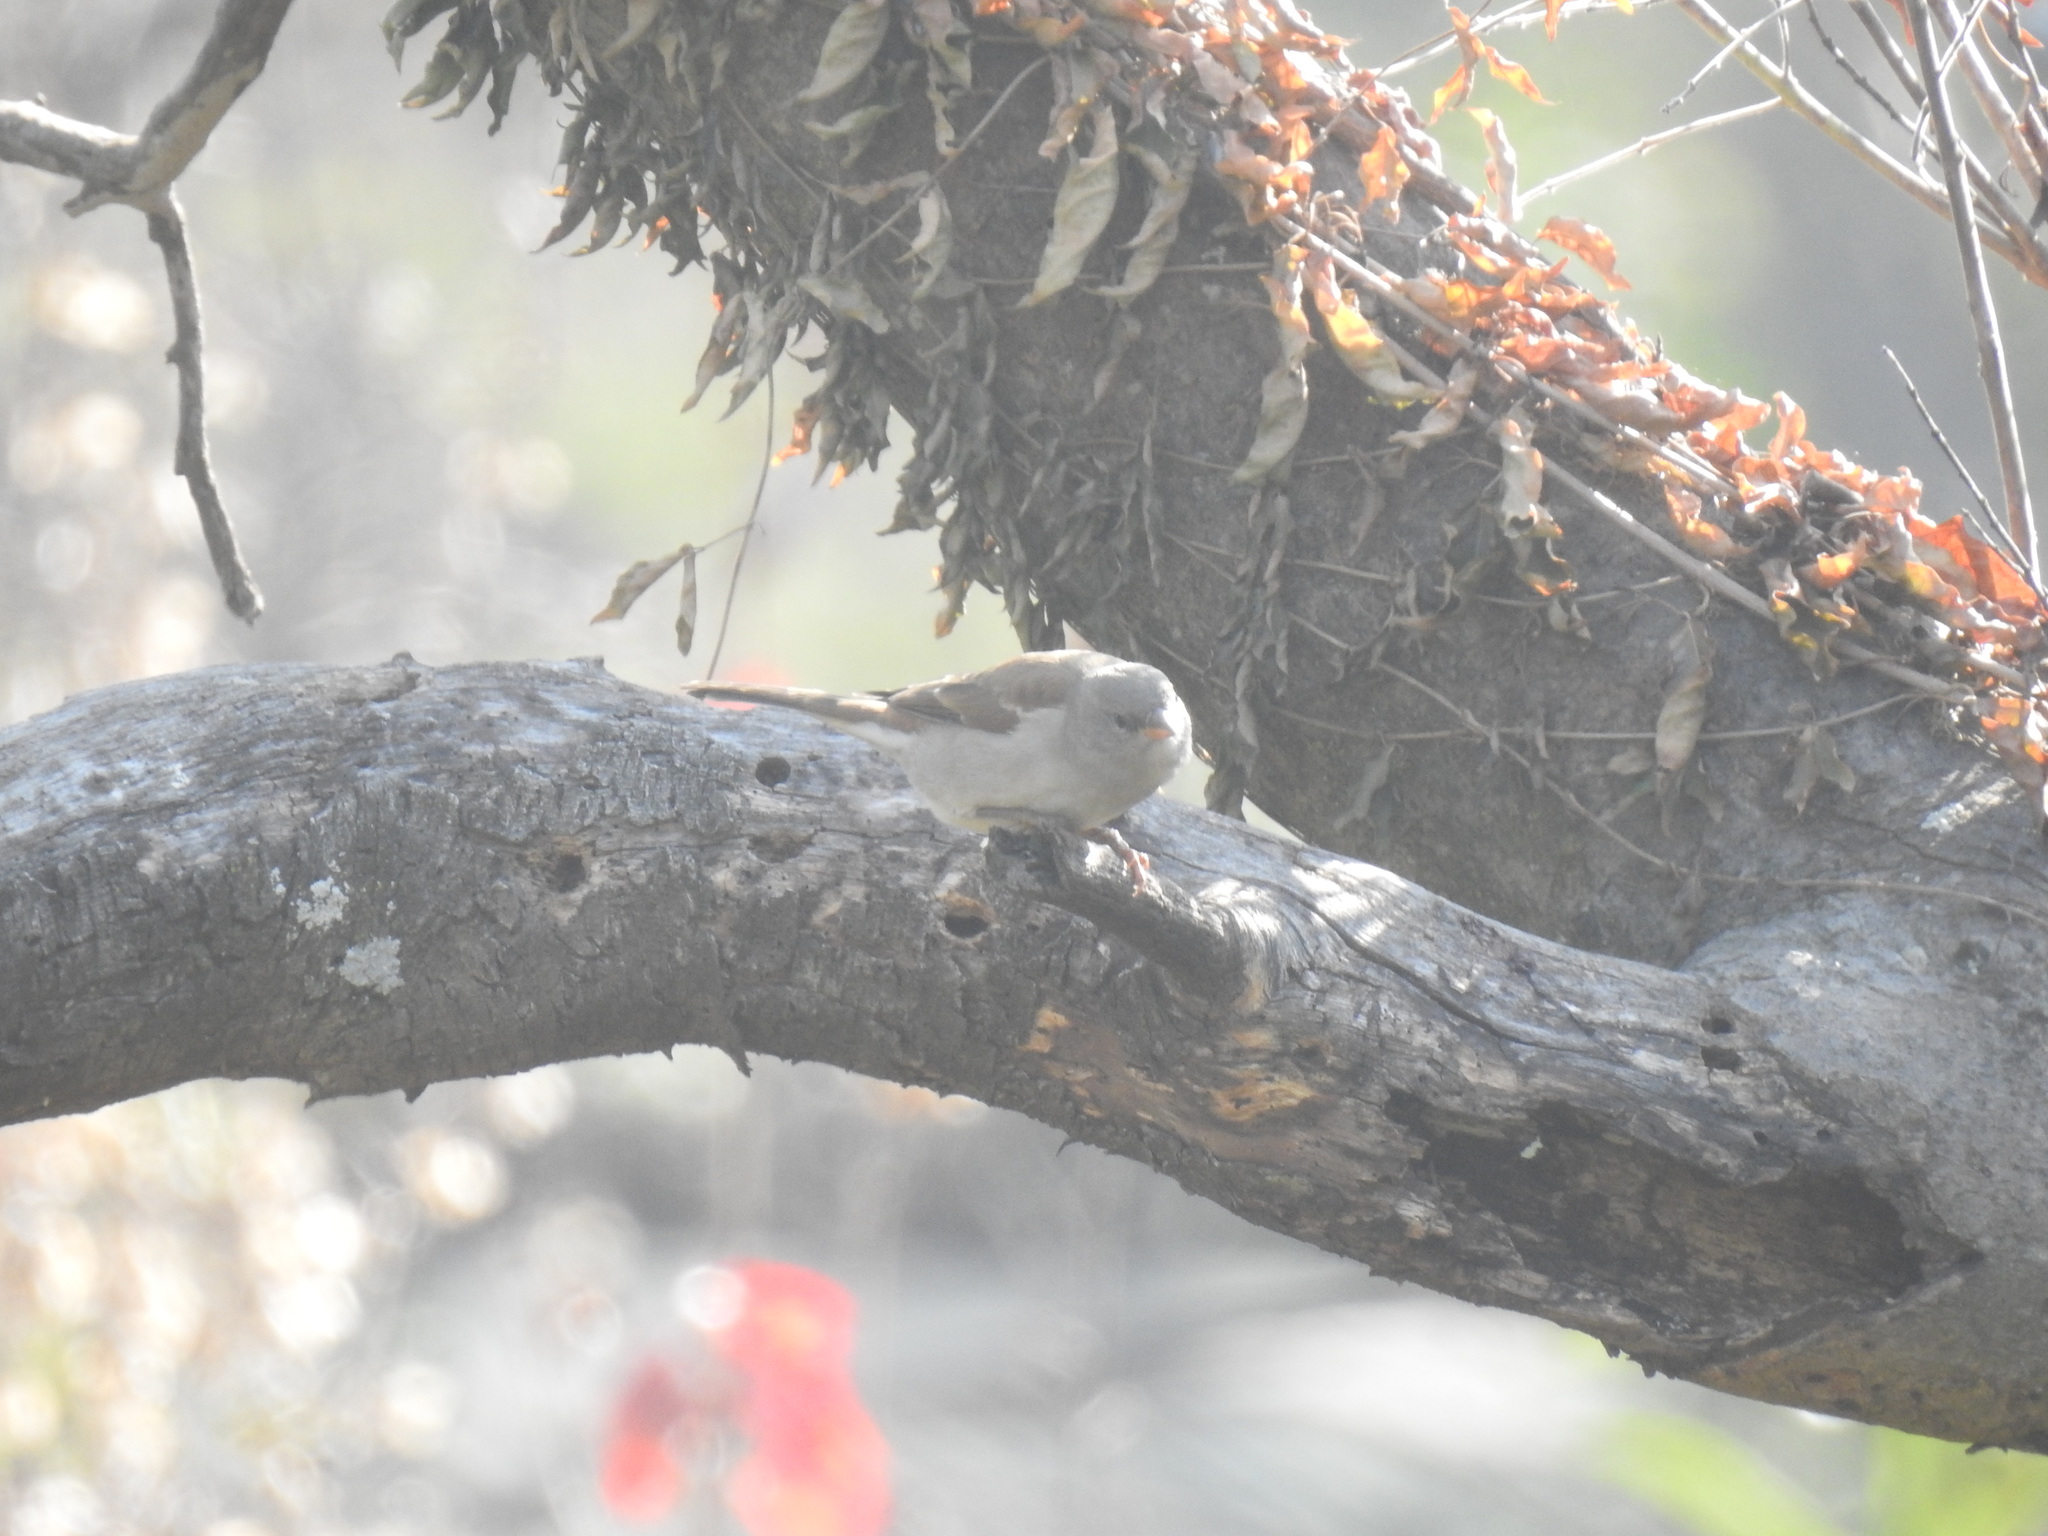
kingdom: Animalia
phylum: Chordata
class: Aves
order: Passeriformes
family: Passeridae
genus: Passer
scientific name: Passer diffusus
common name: Southern grey-headed sparrow
